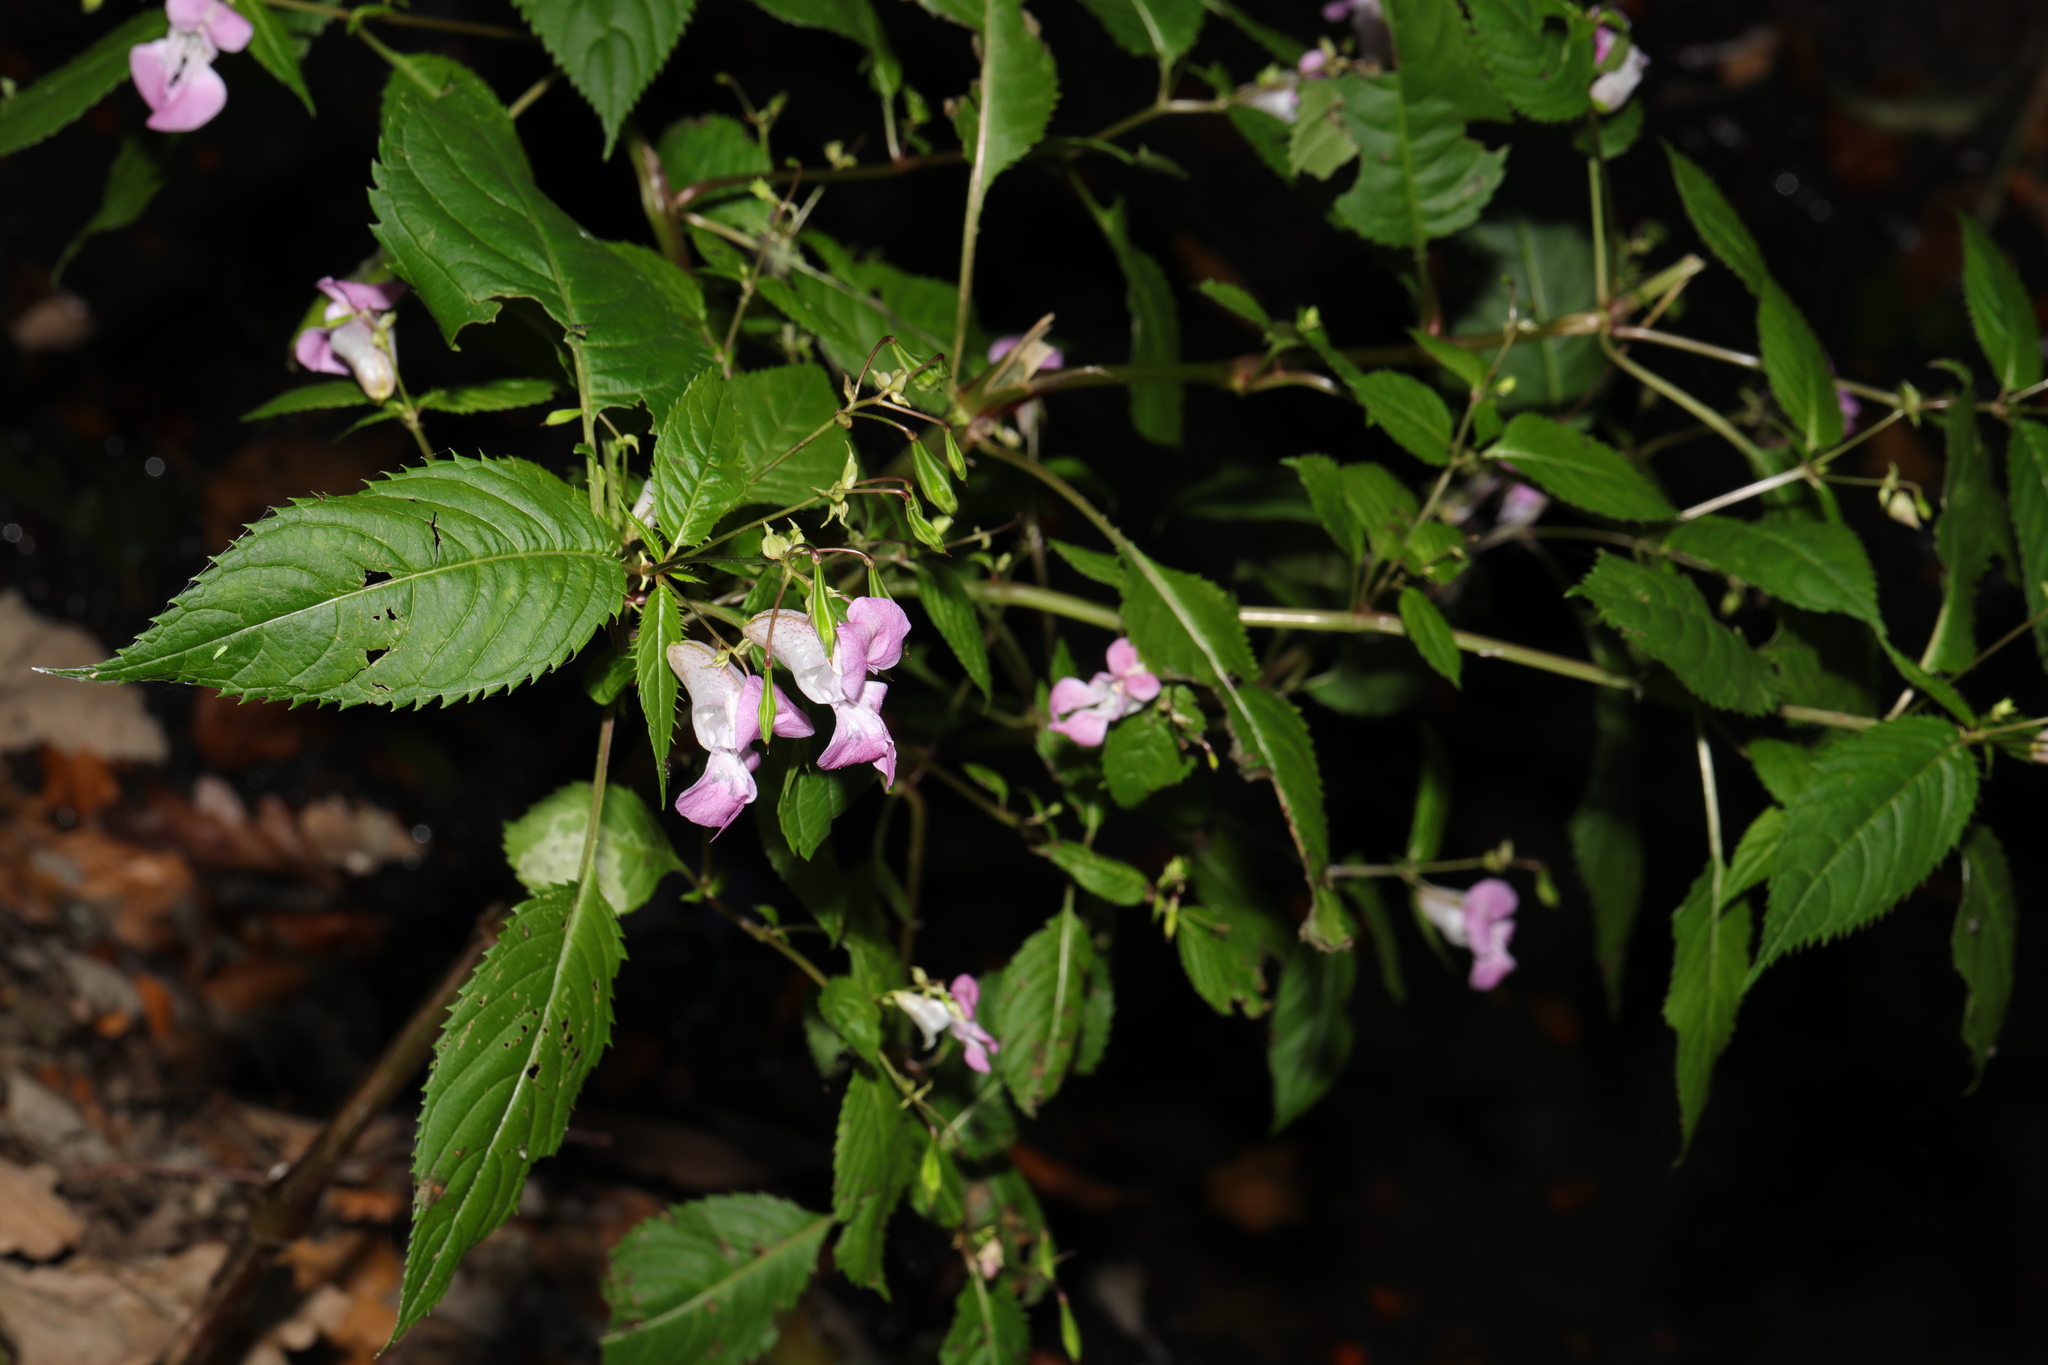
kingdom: Plantae
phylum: Tracheophyta
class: Magnoliopsida
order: Ericales
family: Balsaminaceae
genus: Impatiens
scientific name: Impatiens glandulifera
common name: Himalayan balsam
